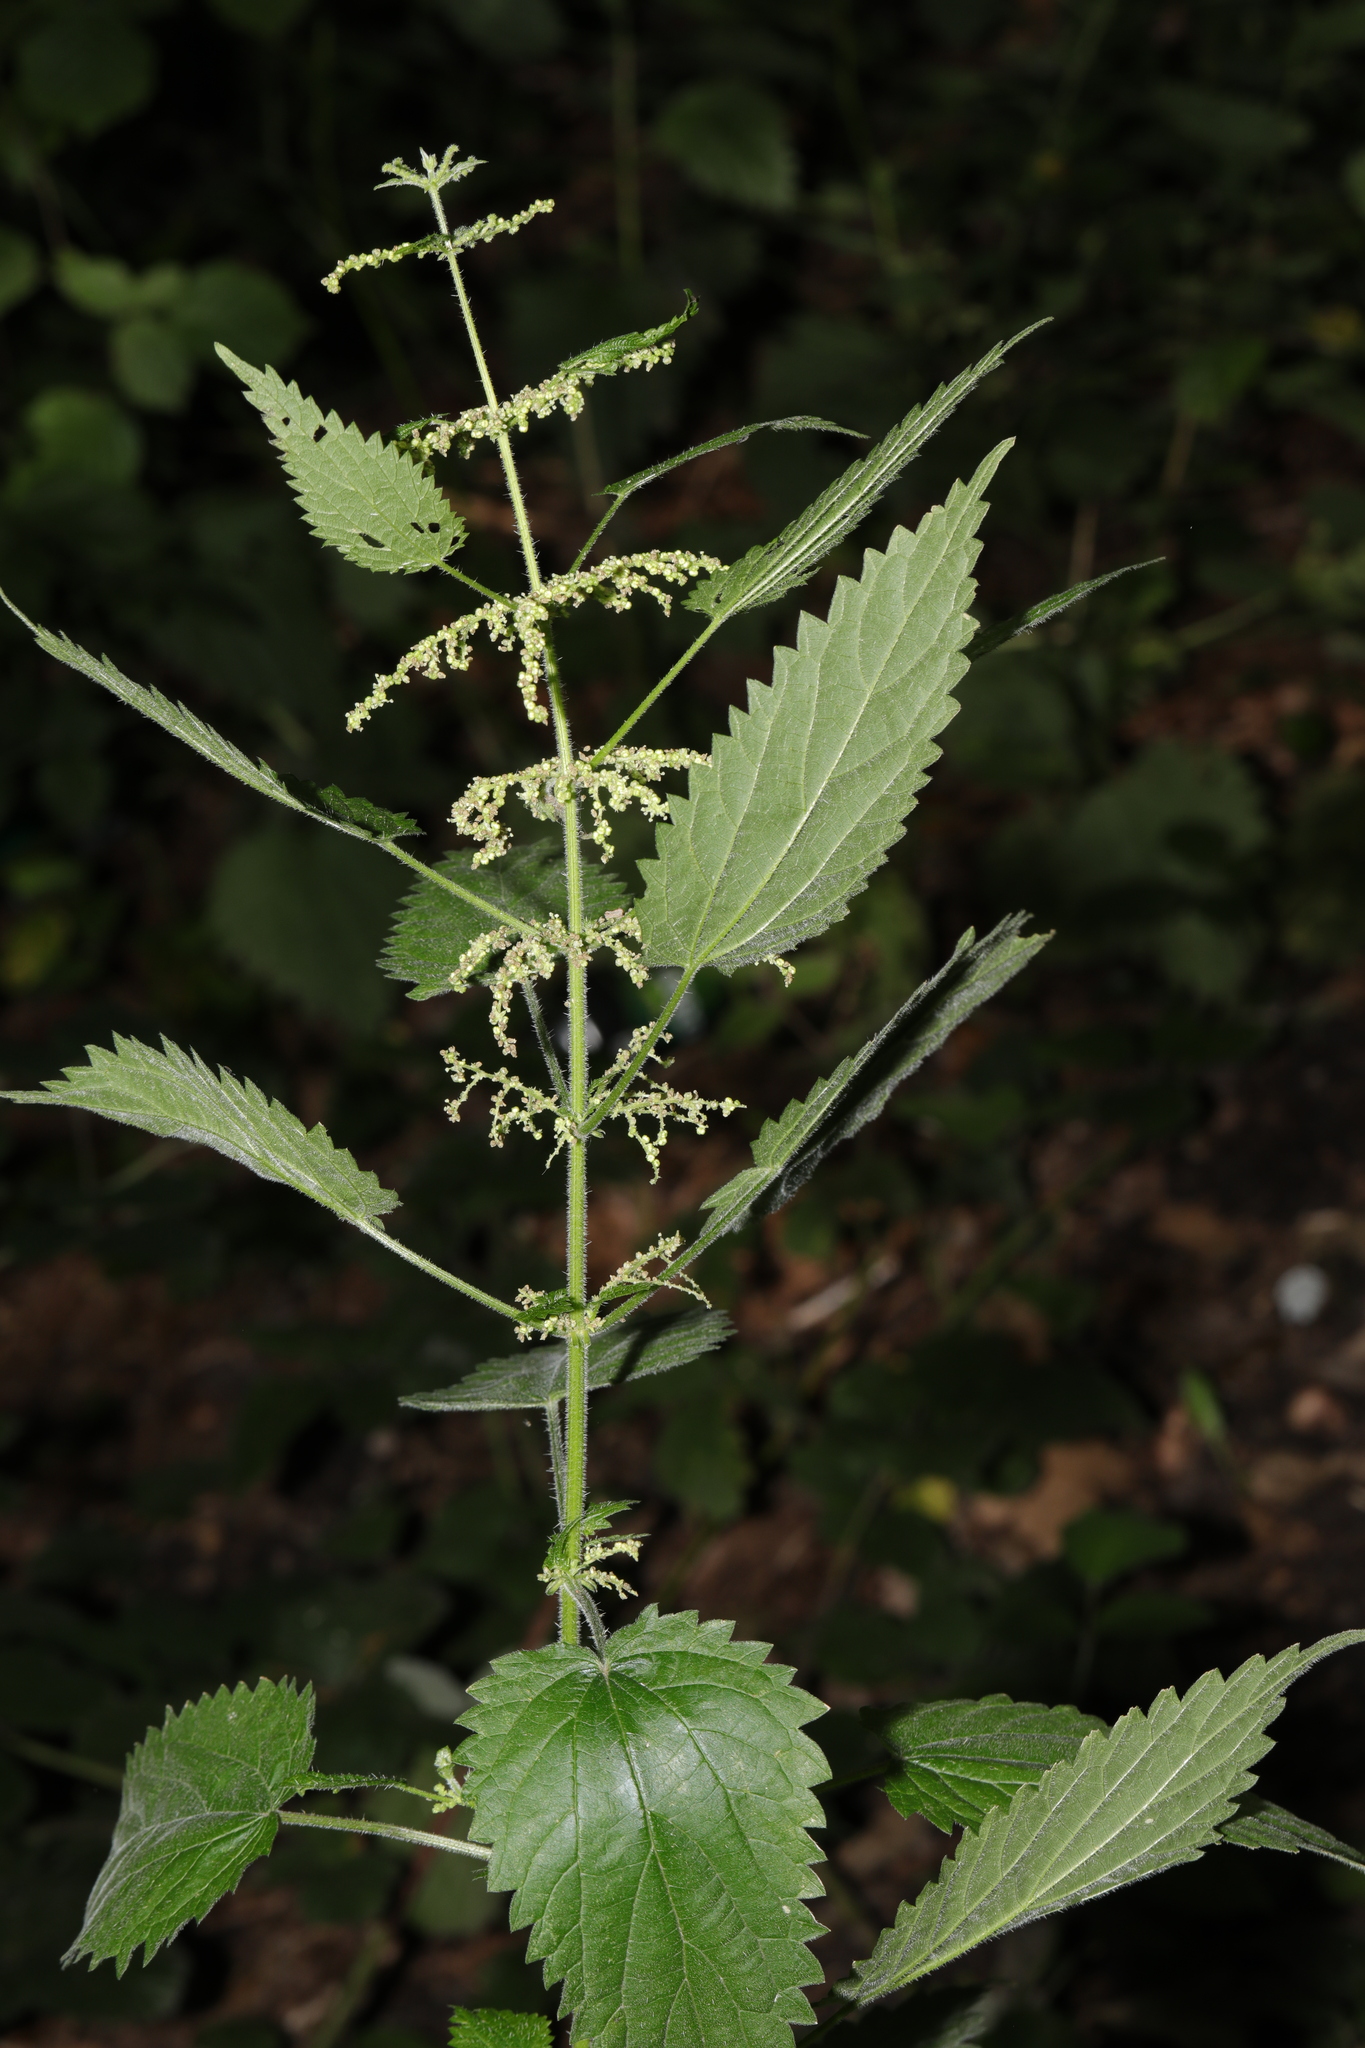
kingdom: Plantae
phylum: Tracheophyta
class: Magnoliopsida
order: Rosales
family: Urticaceae
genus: Urtica
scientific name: Urtica dioica
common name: Common nettle
